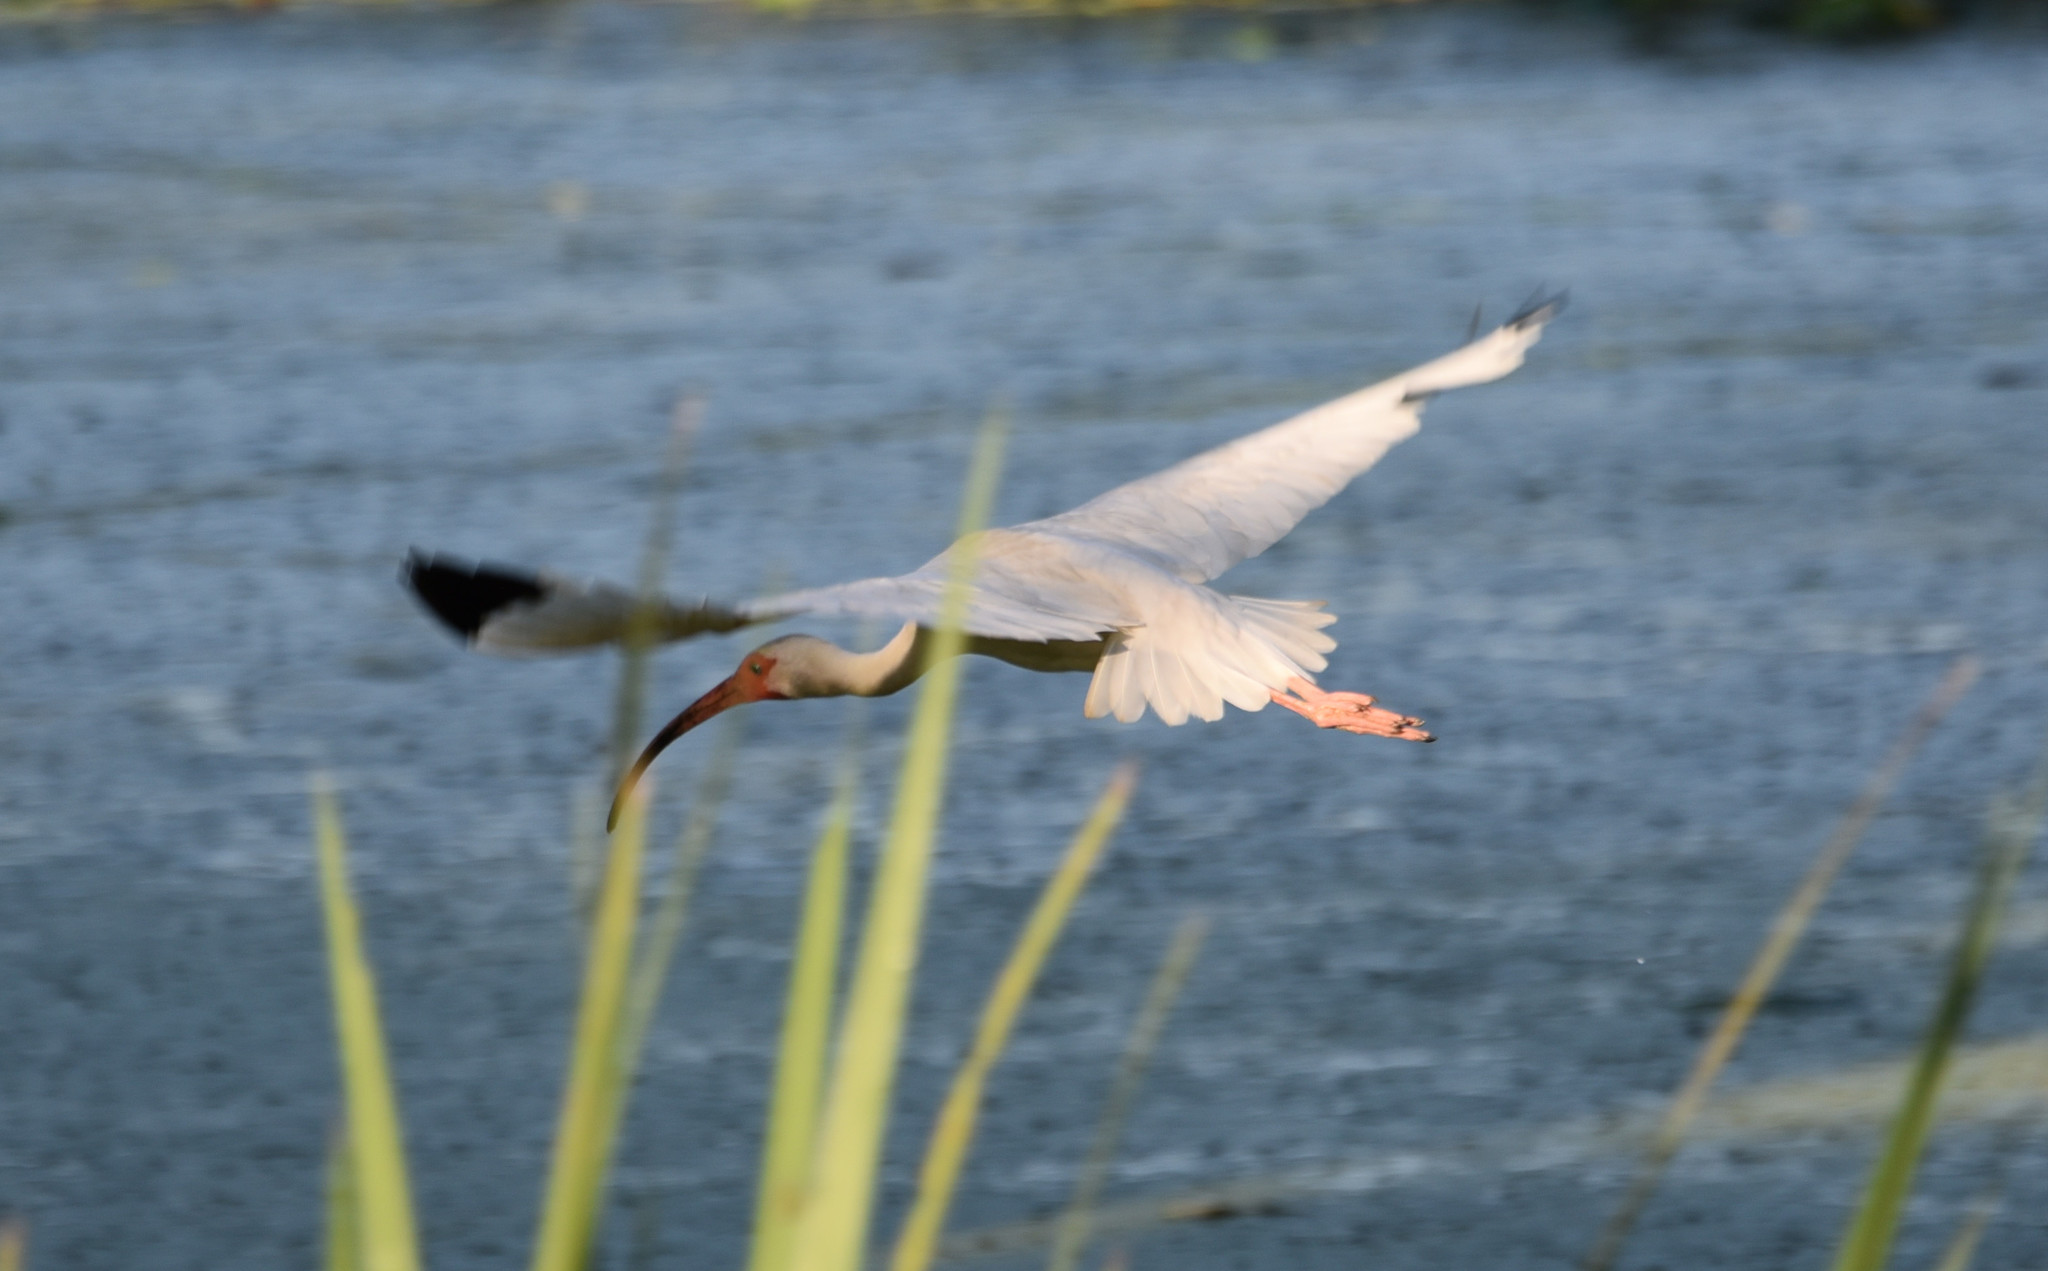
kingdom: Animalia
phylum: Chordata
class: Aves
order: Pelecaniformes
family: Threskiornithidae
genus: Eudocimus
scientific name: Eudocimus albus
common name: White ibis
